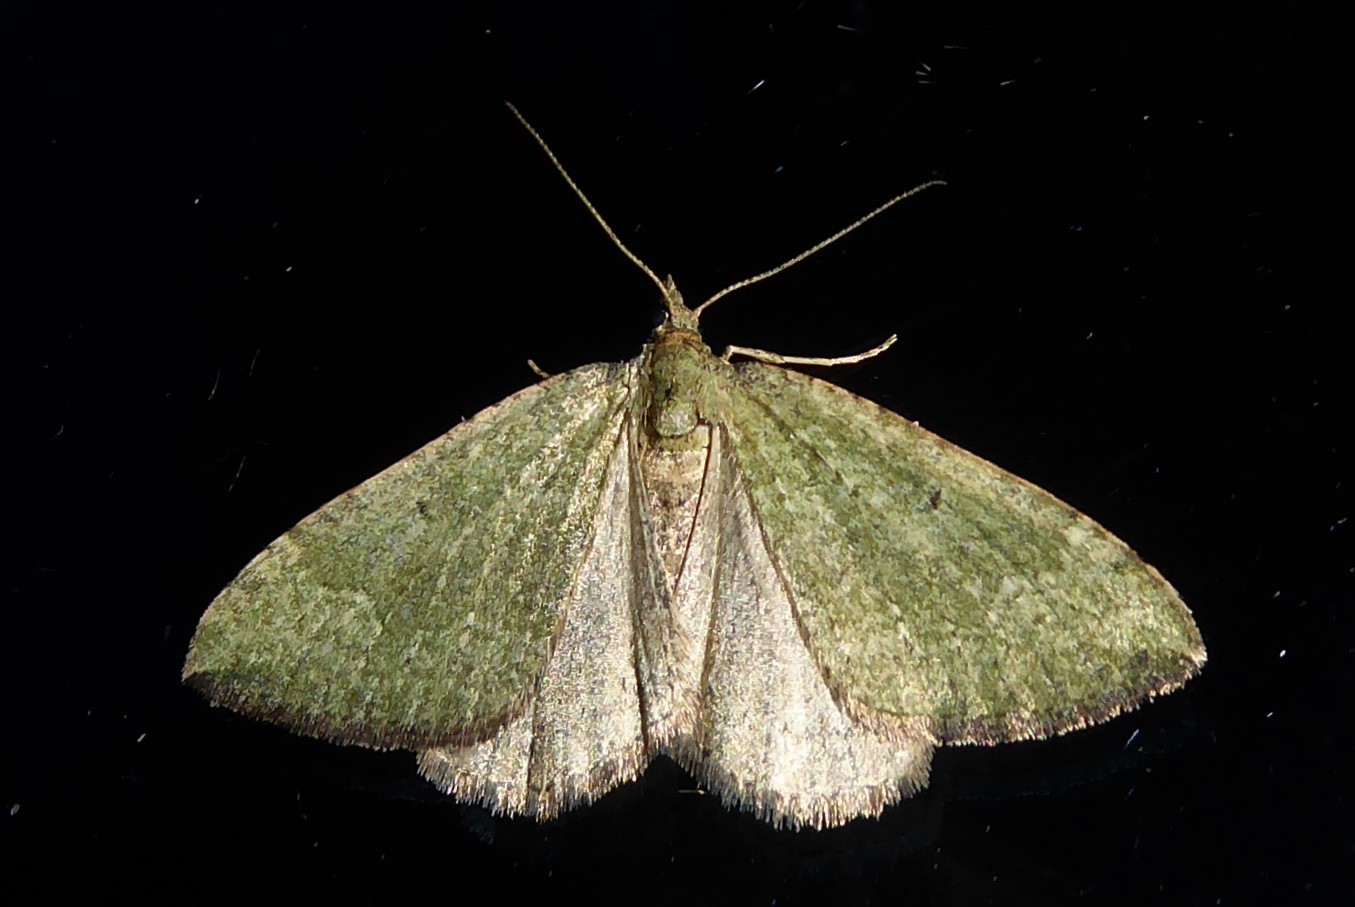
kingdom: Animalia
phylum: Arthropoda
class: Insecta
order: Lepidoptera
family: Geometridae
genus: Epyaxa
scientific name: Epyaxa rosearia
